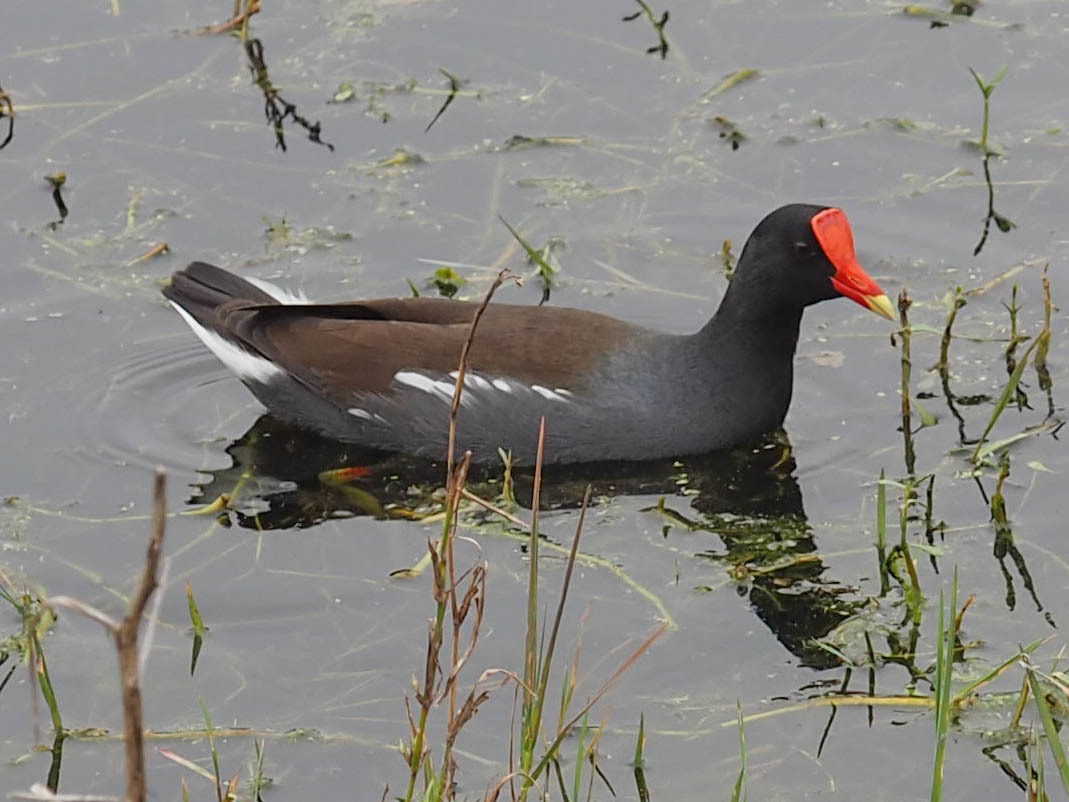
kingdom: Animalia
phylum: Chordata
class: Aves
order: Gruiformes
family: Rallidae
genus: Gallinula
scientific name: Gallinula chloropus
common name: Common moorhen
